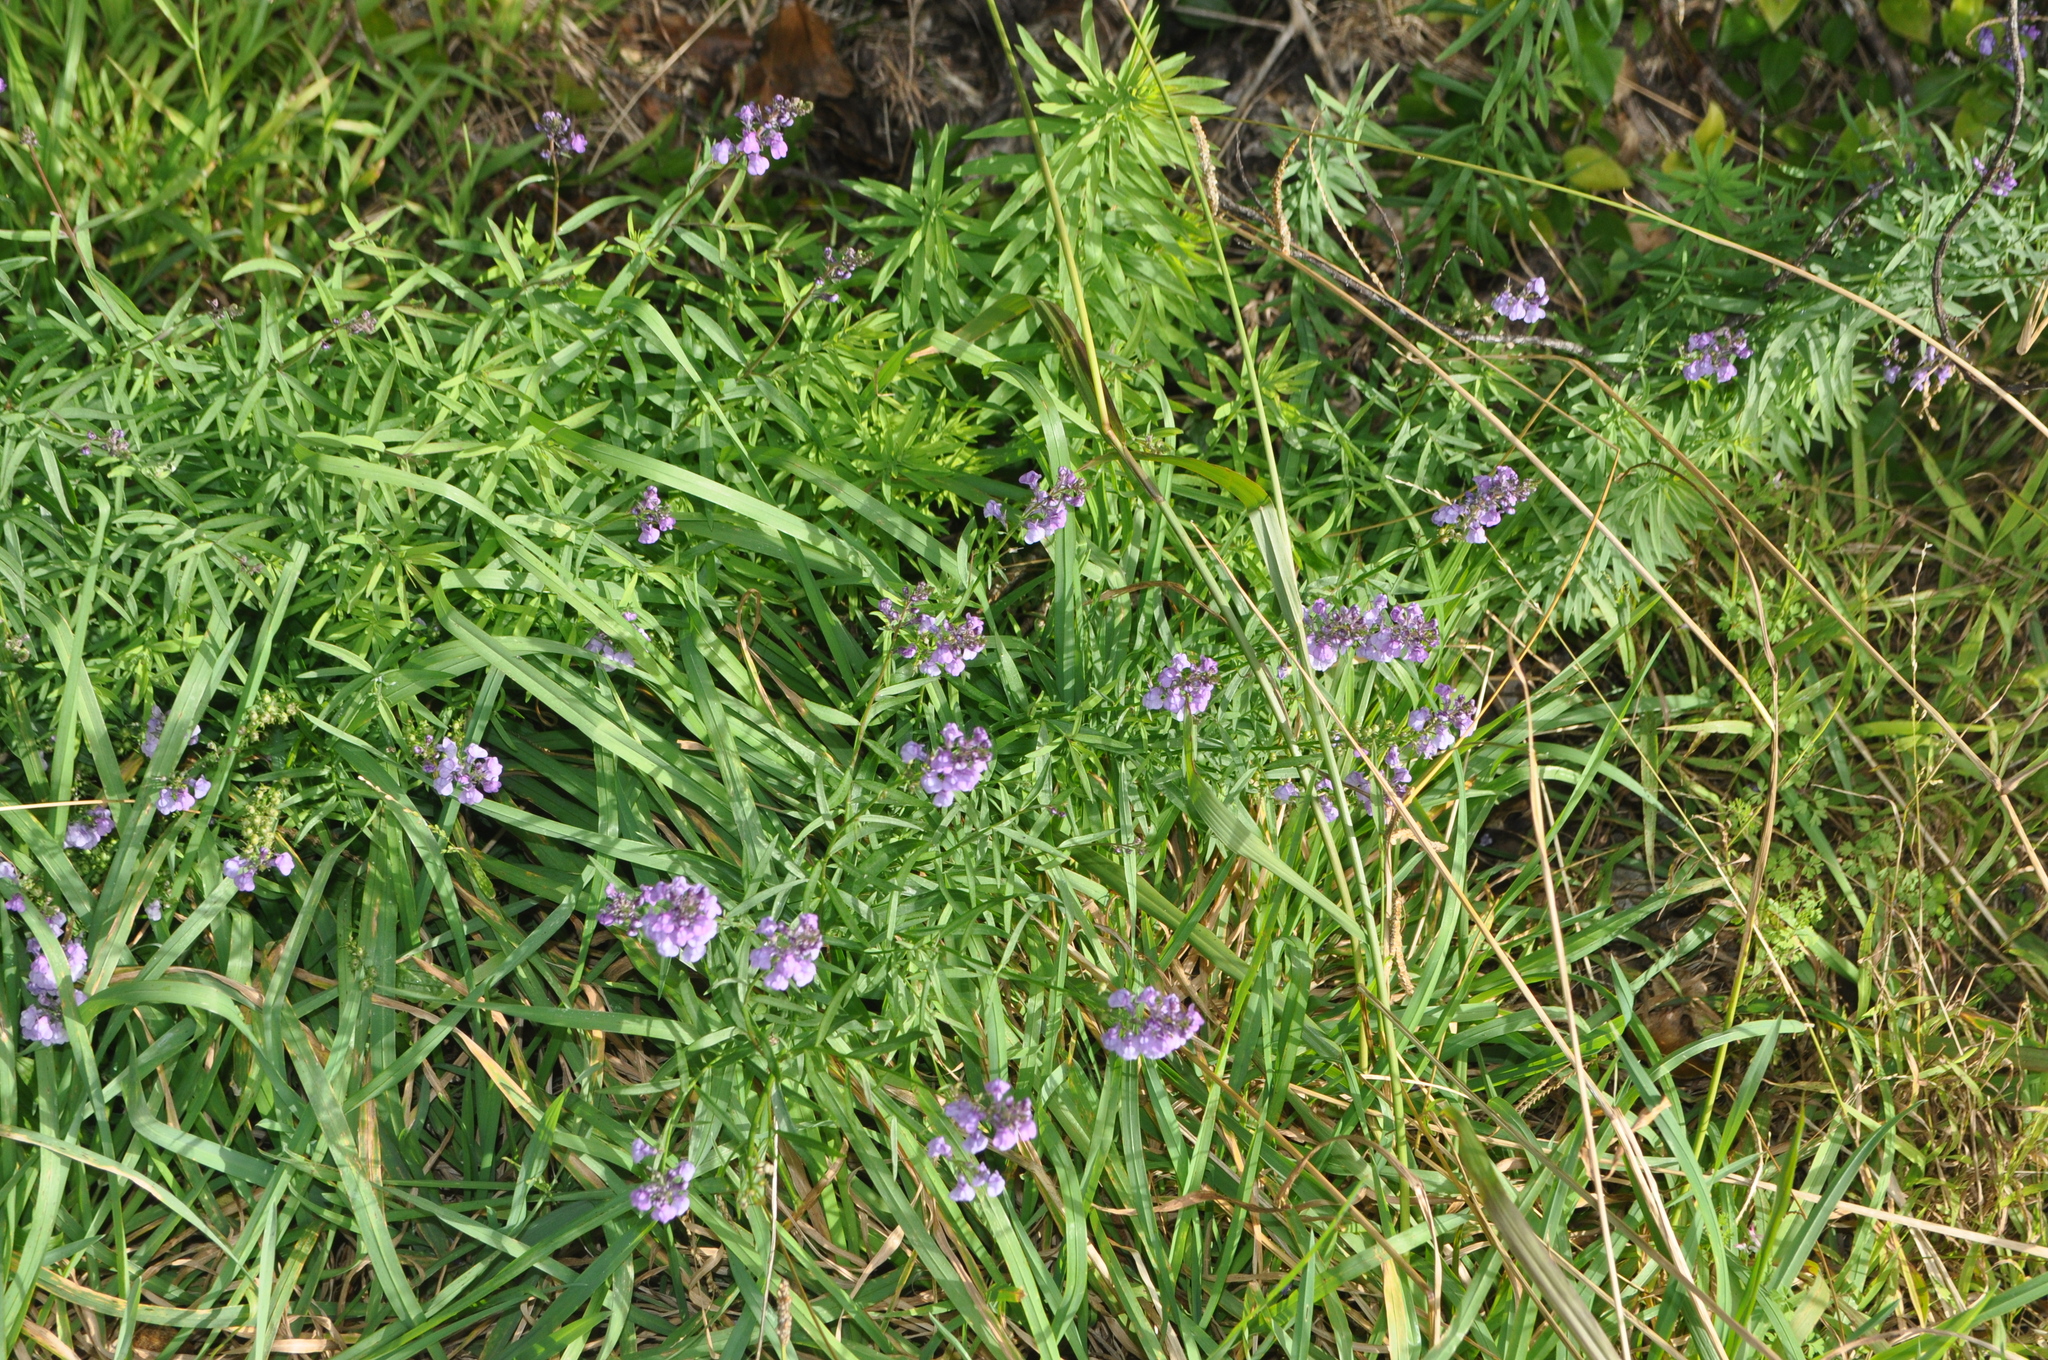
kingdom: Plantae
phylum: Tracheophyta
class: Magnoliopsida
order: Lamiales
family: Plantaginaceae
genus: Linaria
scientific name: Linaria purpurea
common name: Purple toadflax
